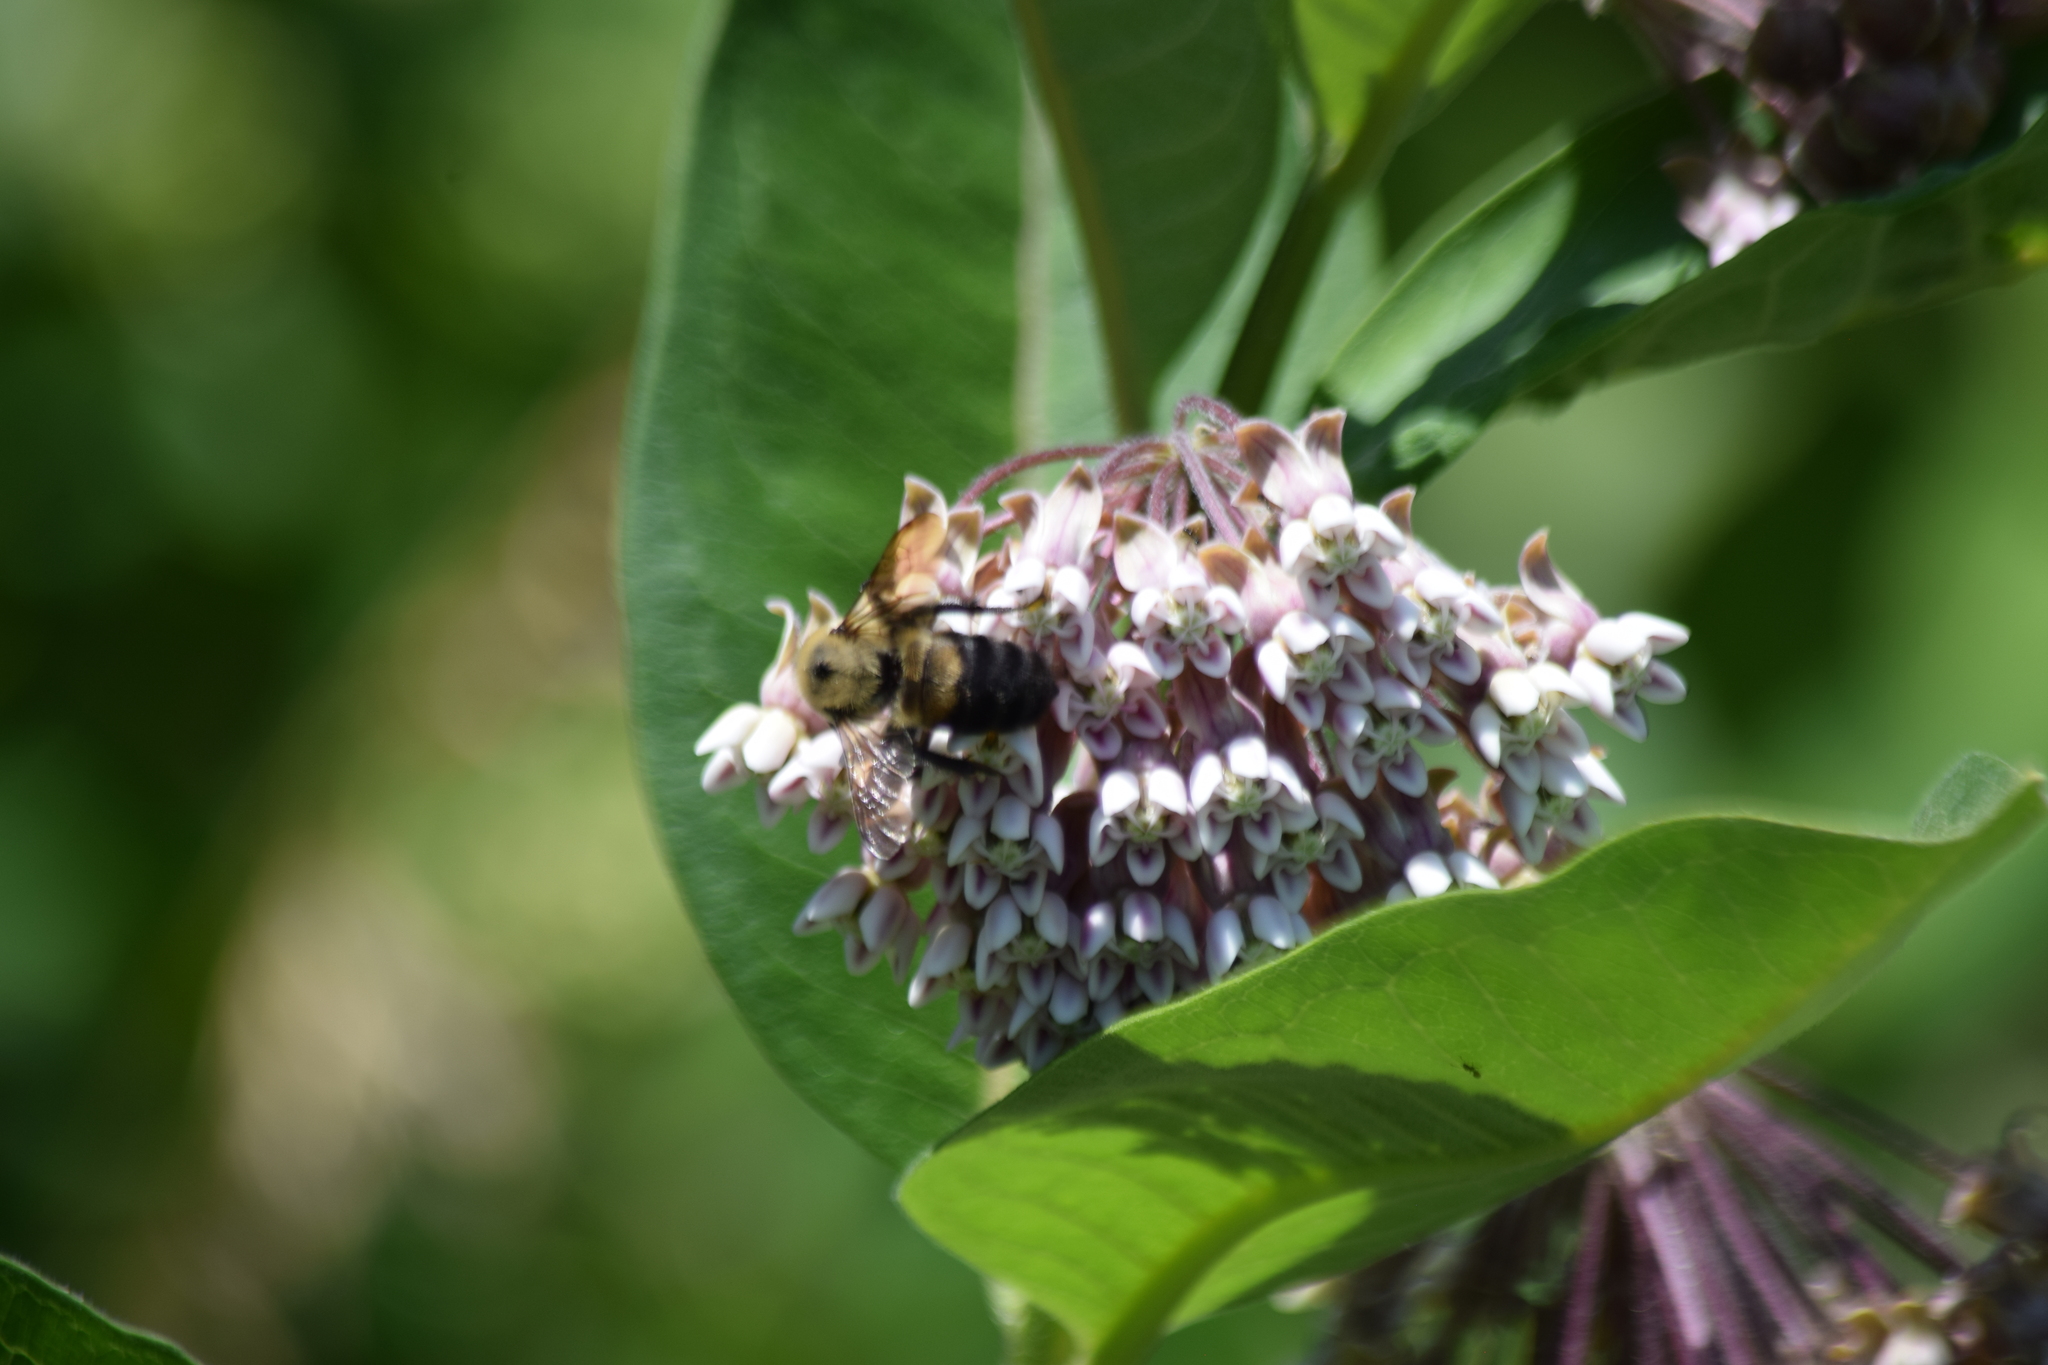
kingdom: Animalia
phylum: Arthropoda
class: Insecta
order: Hymenoptera
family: Apidae
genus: Bombus
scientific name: Bombus griseocollis
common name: Brown-belted bumble bee
